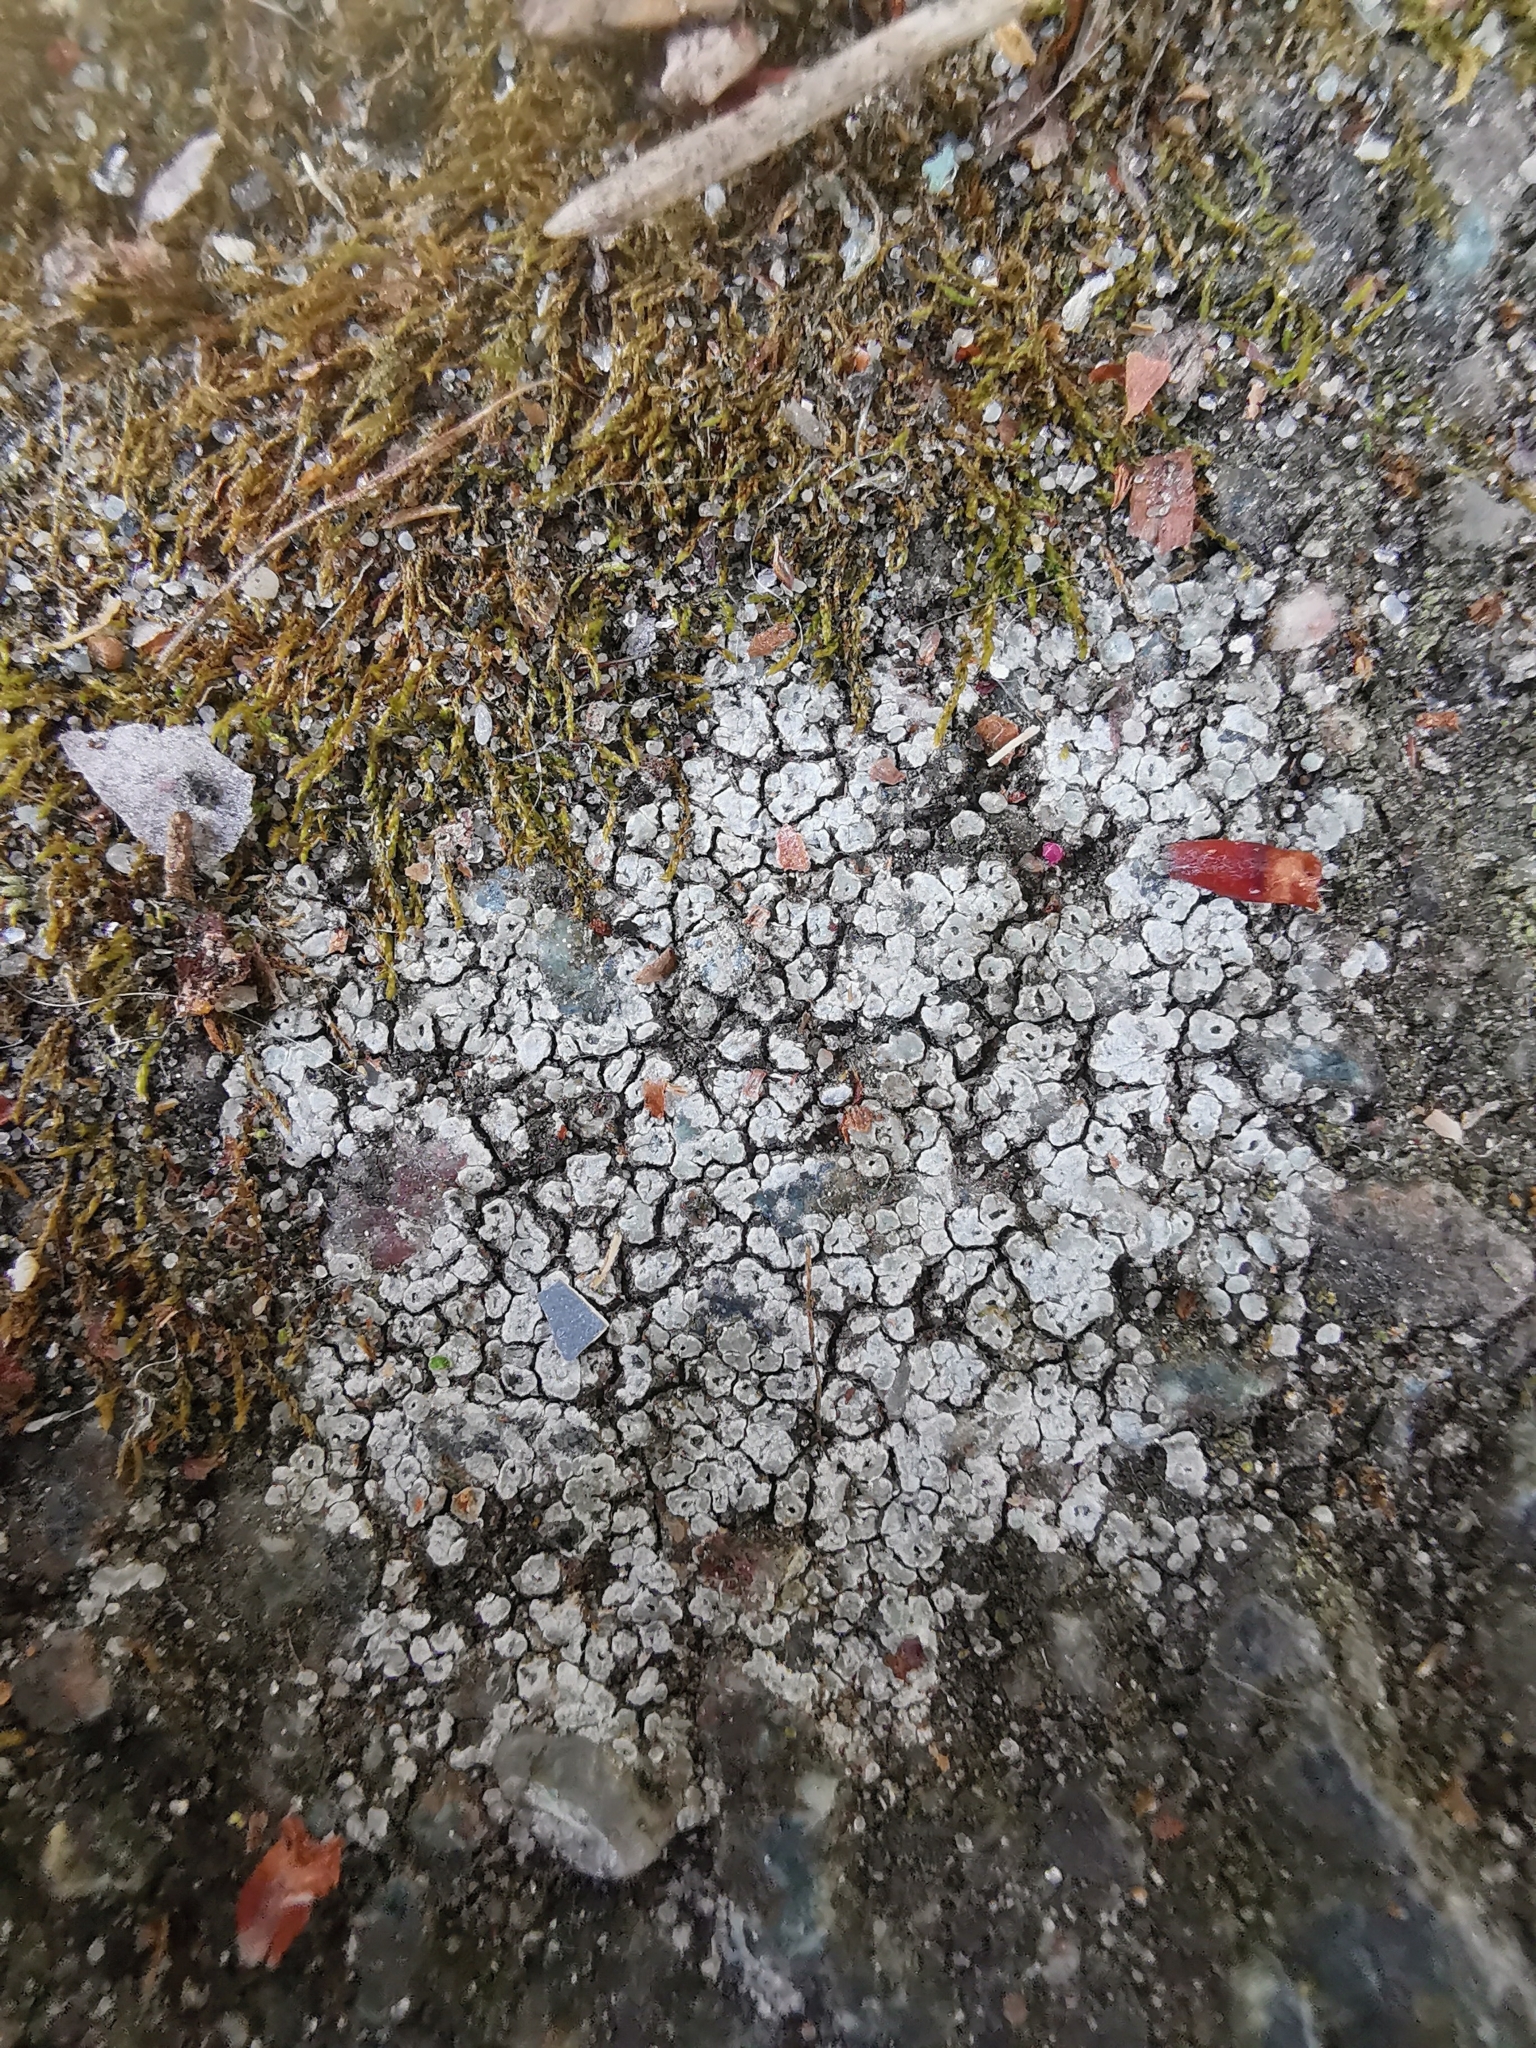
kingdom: Fungi
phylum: Ascomycota
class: Lecanoromycetes
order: Pertusariales
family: Megasporaceae
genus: Circinaria
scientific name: Circinaria contorta
